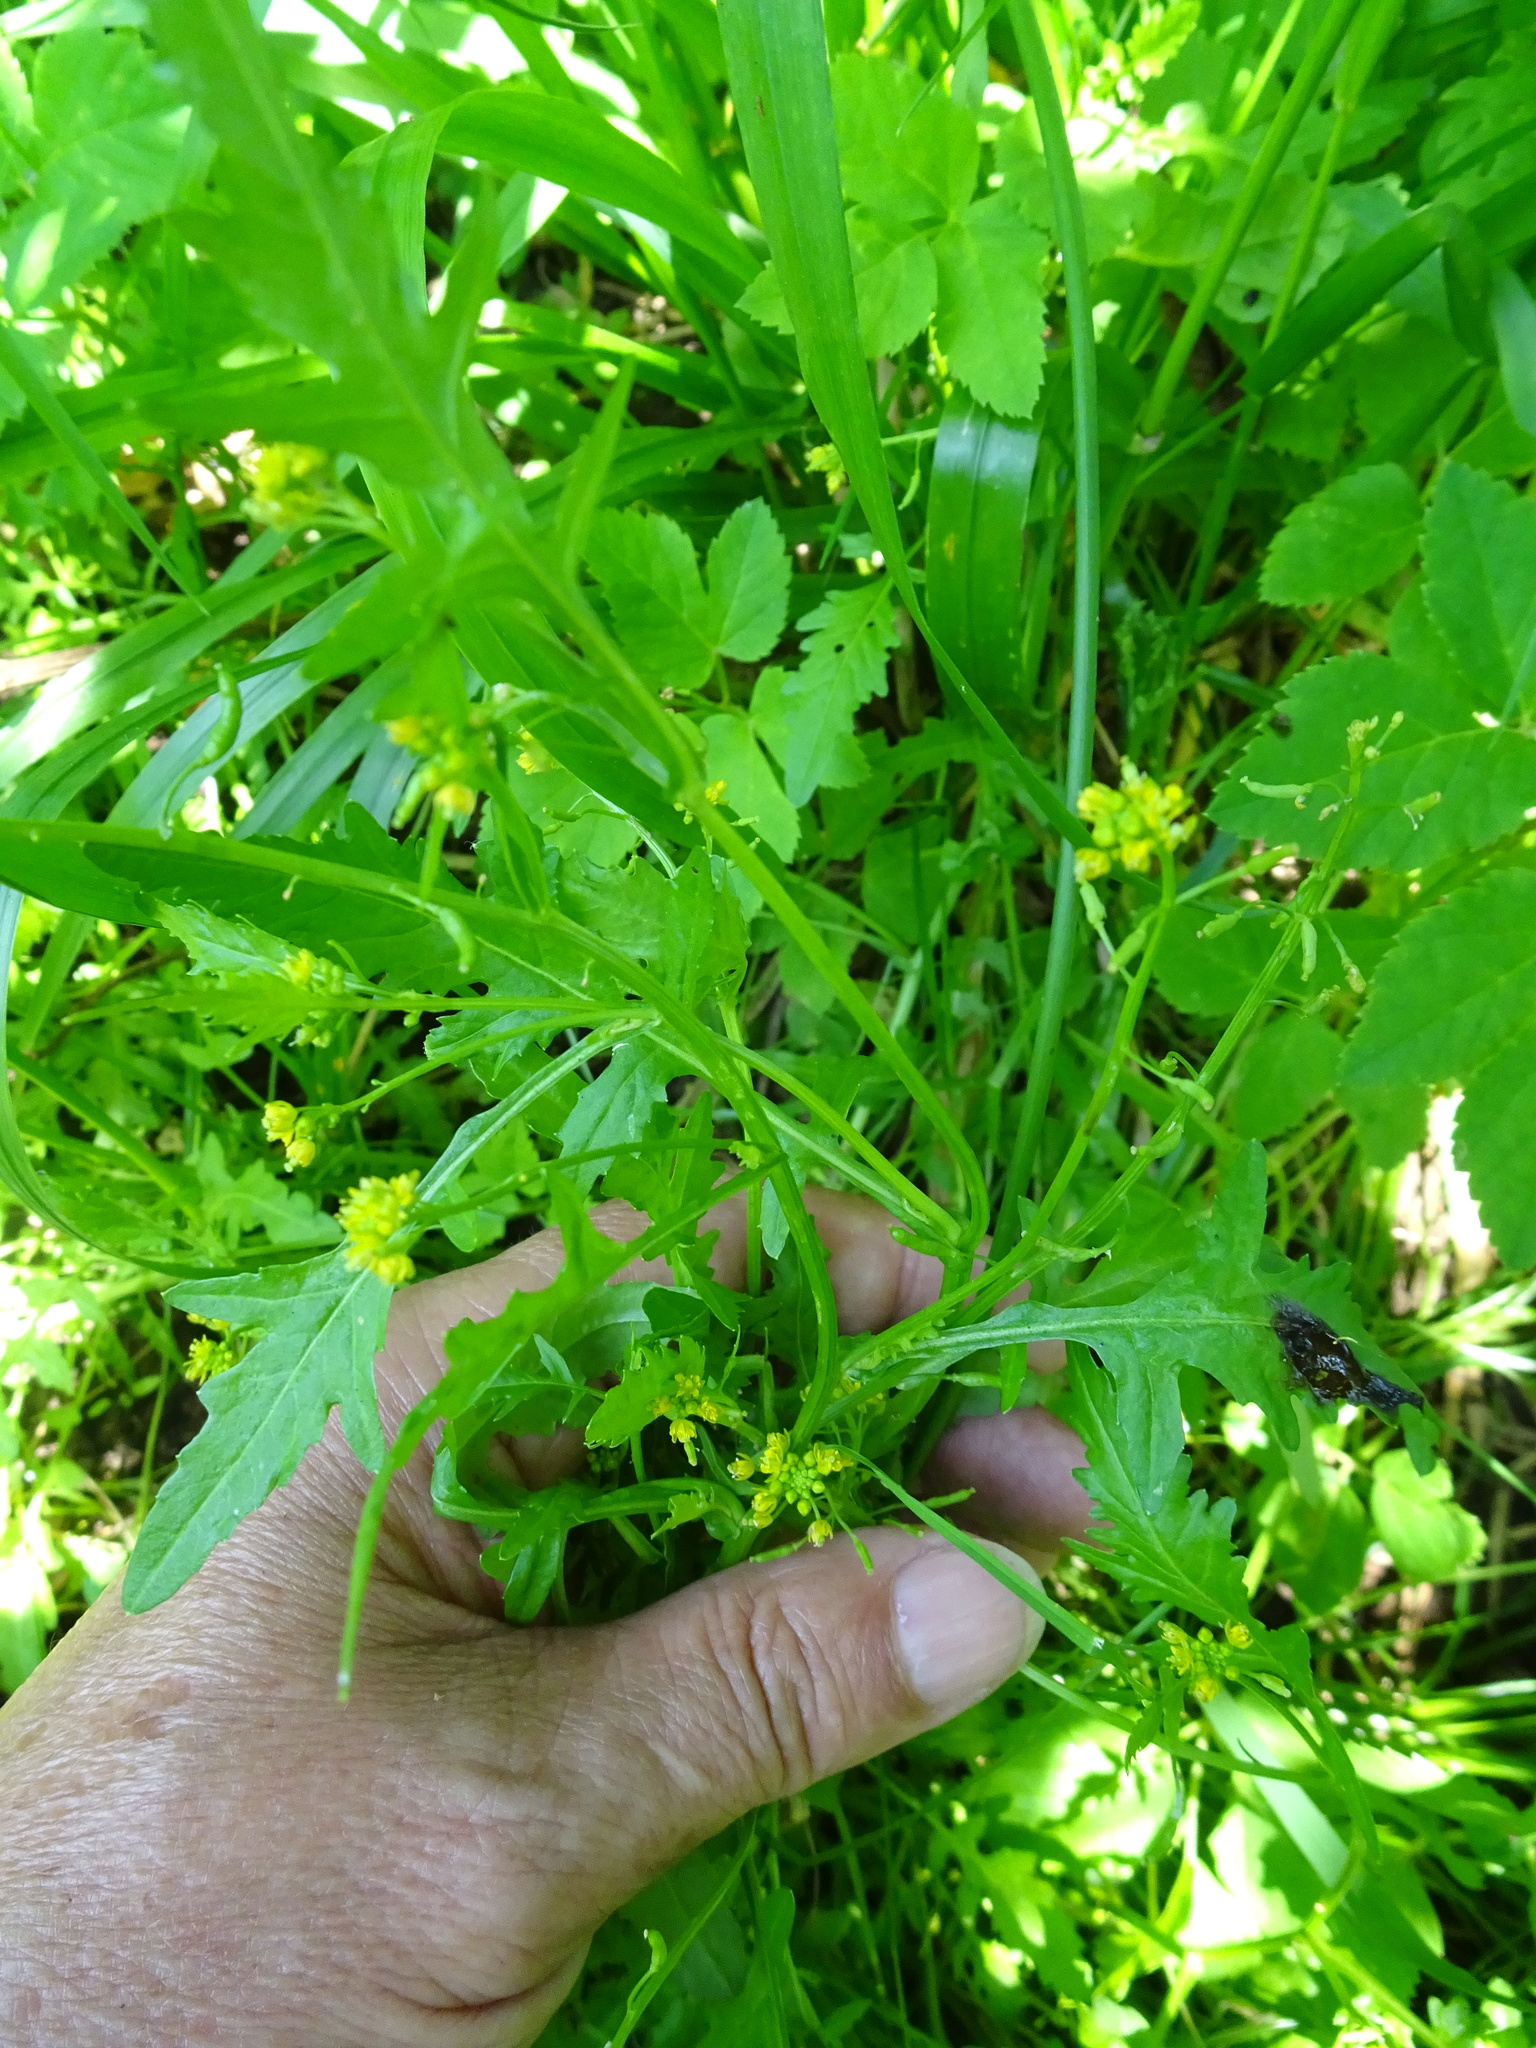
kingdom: Plantae
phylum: Tracheophyta
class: Magnoliopsida
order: Brassicales
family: Brassicaceae
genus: Rorippa
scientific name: Rorippa palustris
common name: Marsh yellow-cress
